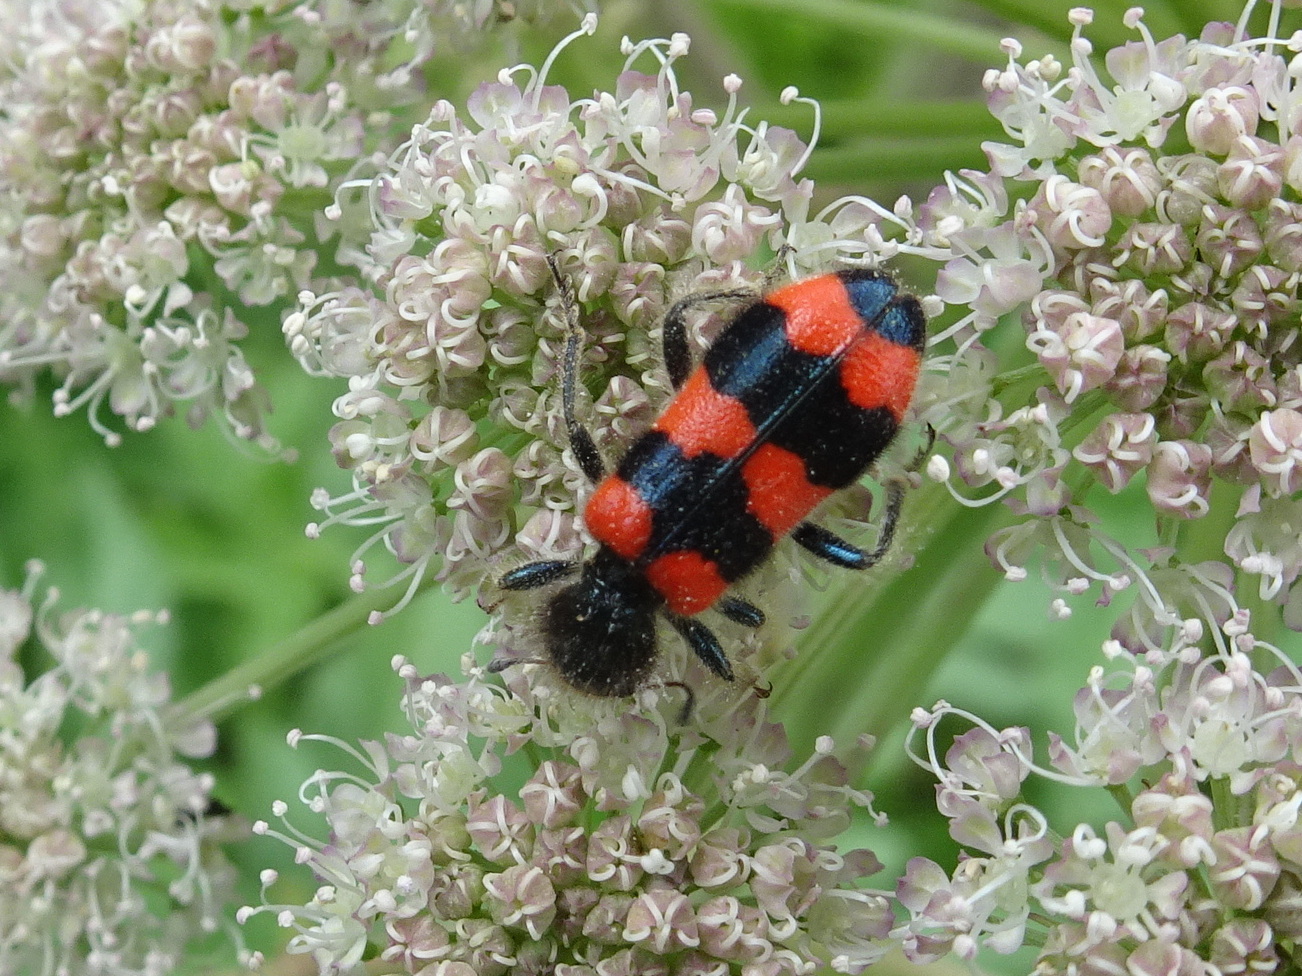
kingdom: Animalia
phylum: Arthropoda
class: Insecta
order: Coleoptera
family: Cleridae
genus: Trichodes
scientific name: Trichodes apiarius
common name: Bee-eating beetle
